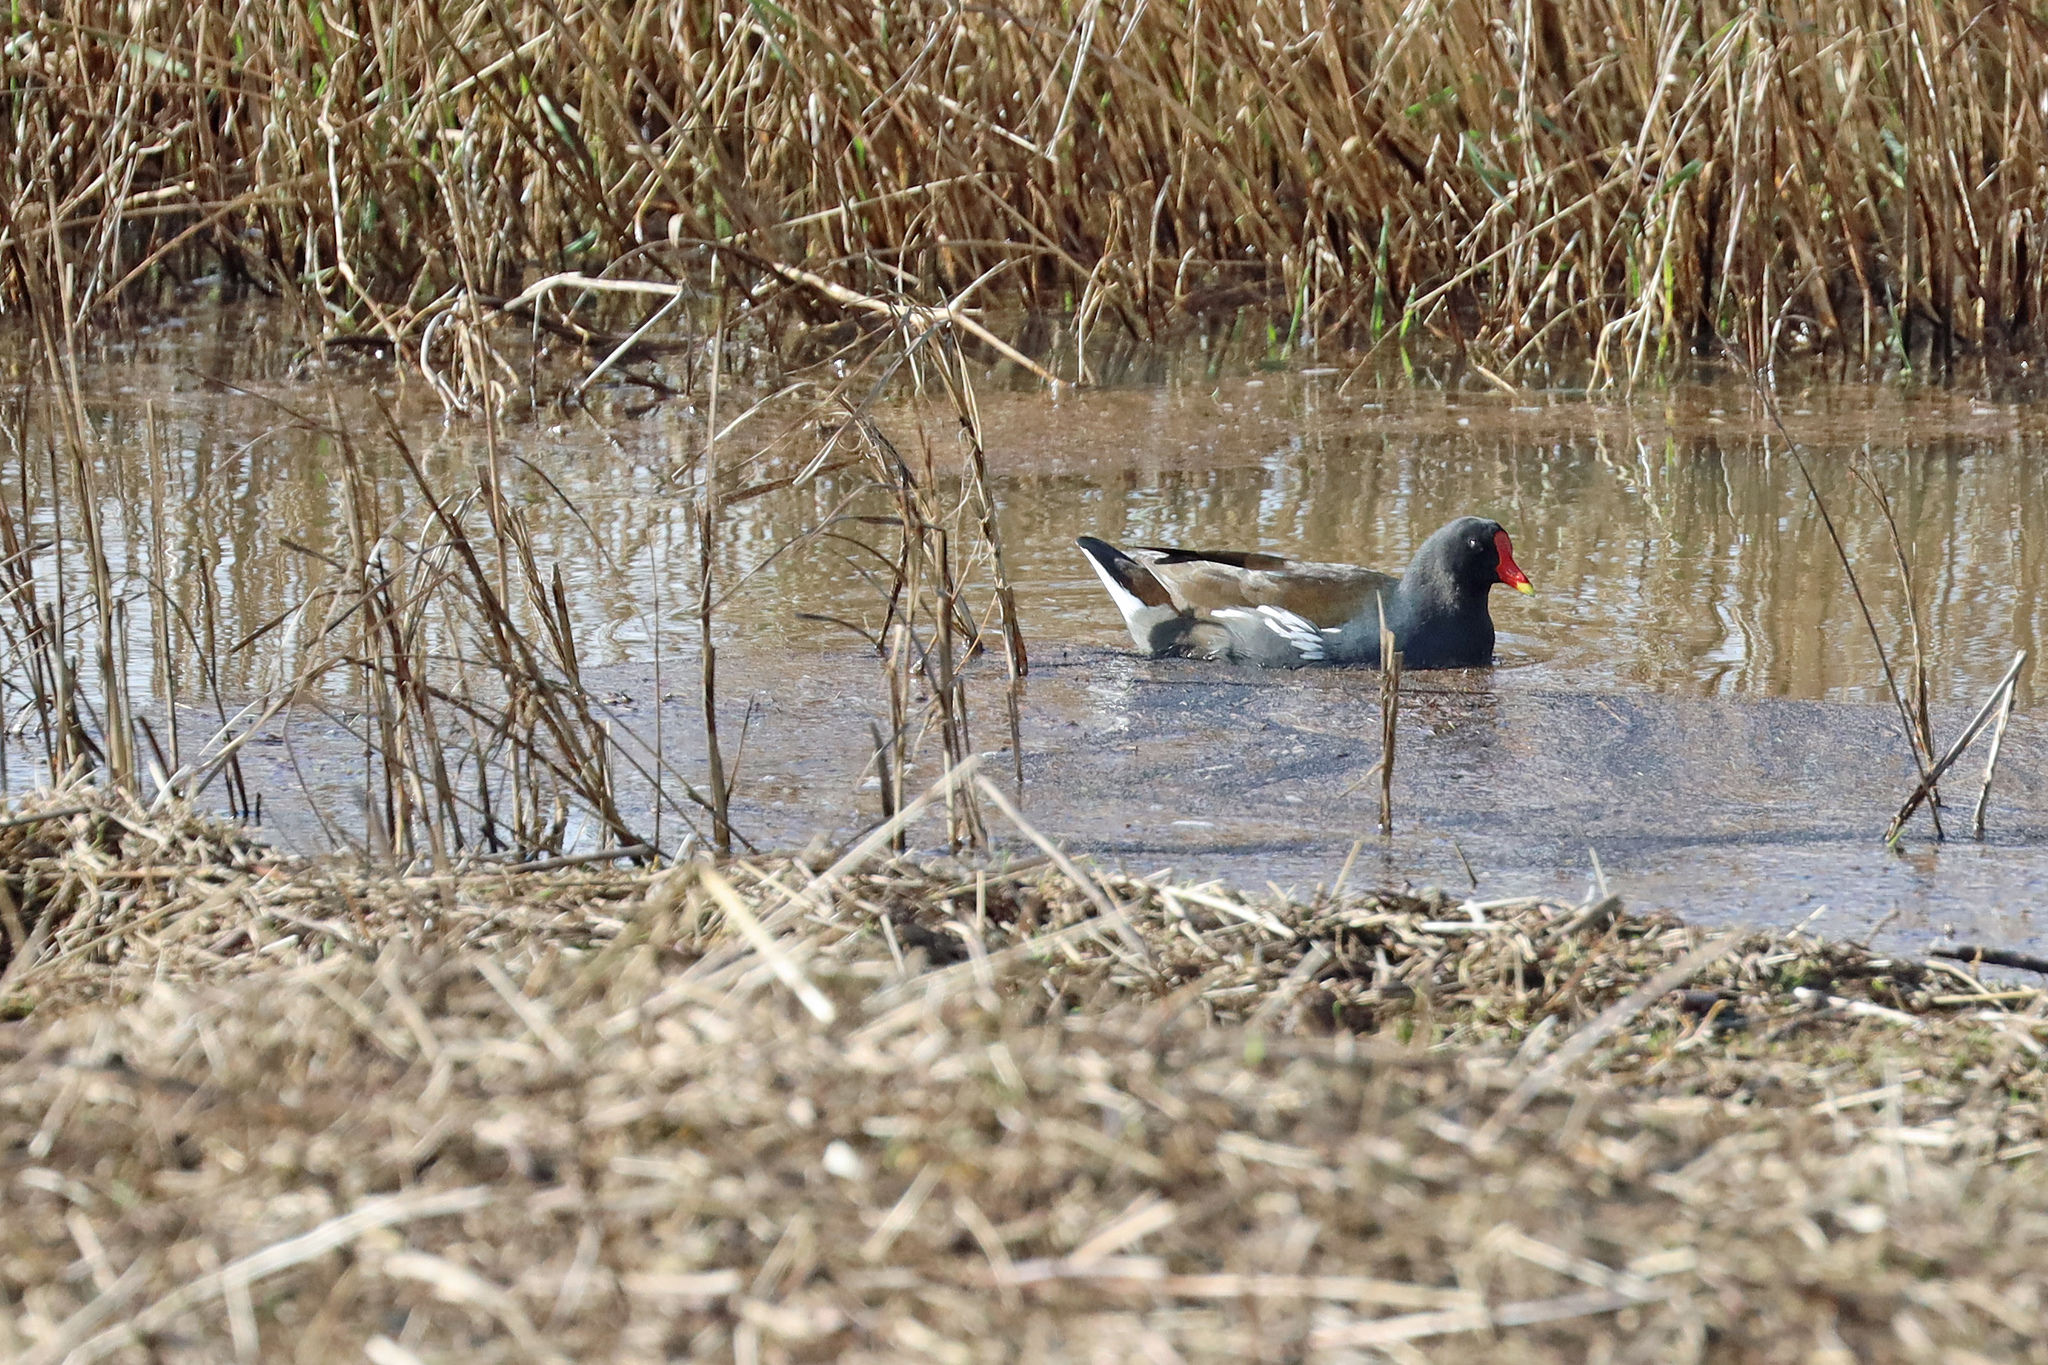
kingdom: Animalia
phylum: Chordata
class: Aves
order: Gruiformes
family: Rallidae
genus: Gallinula
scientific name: Gallinula chloropus
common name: Common moorhen
